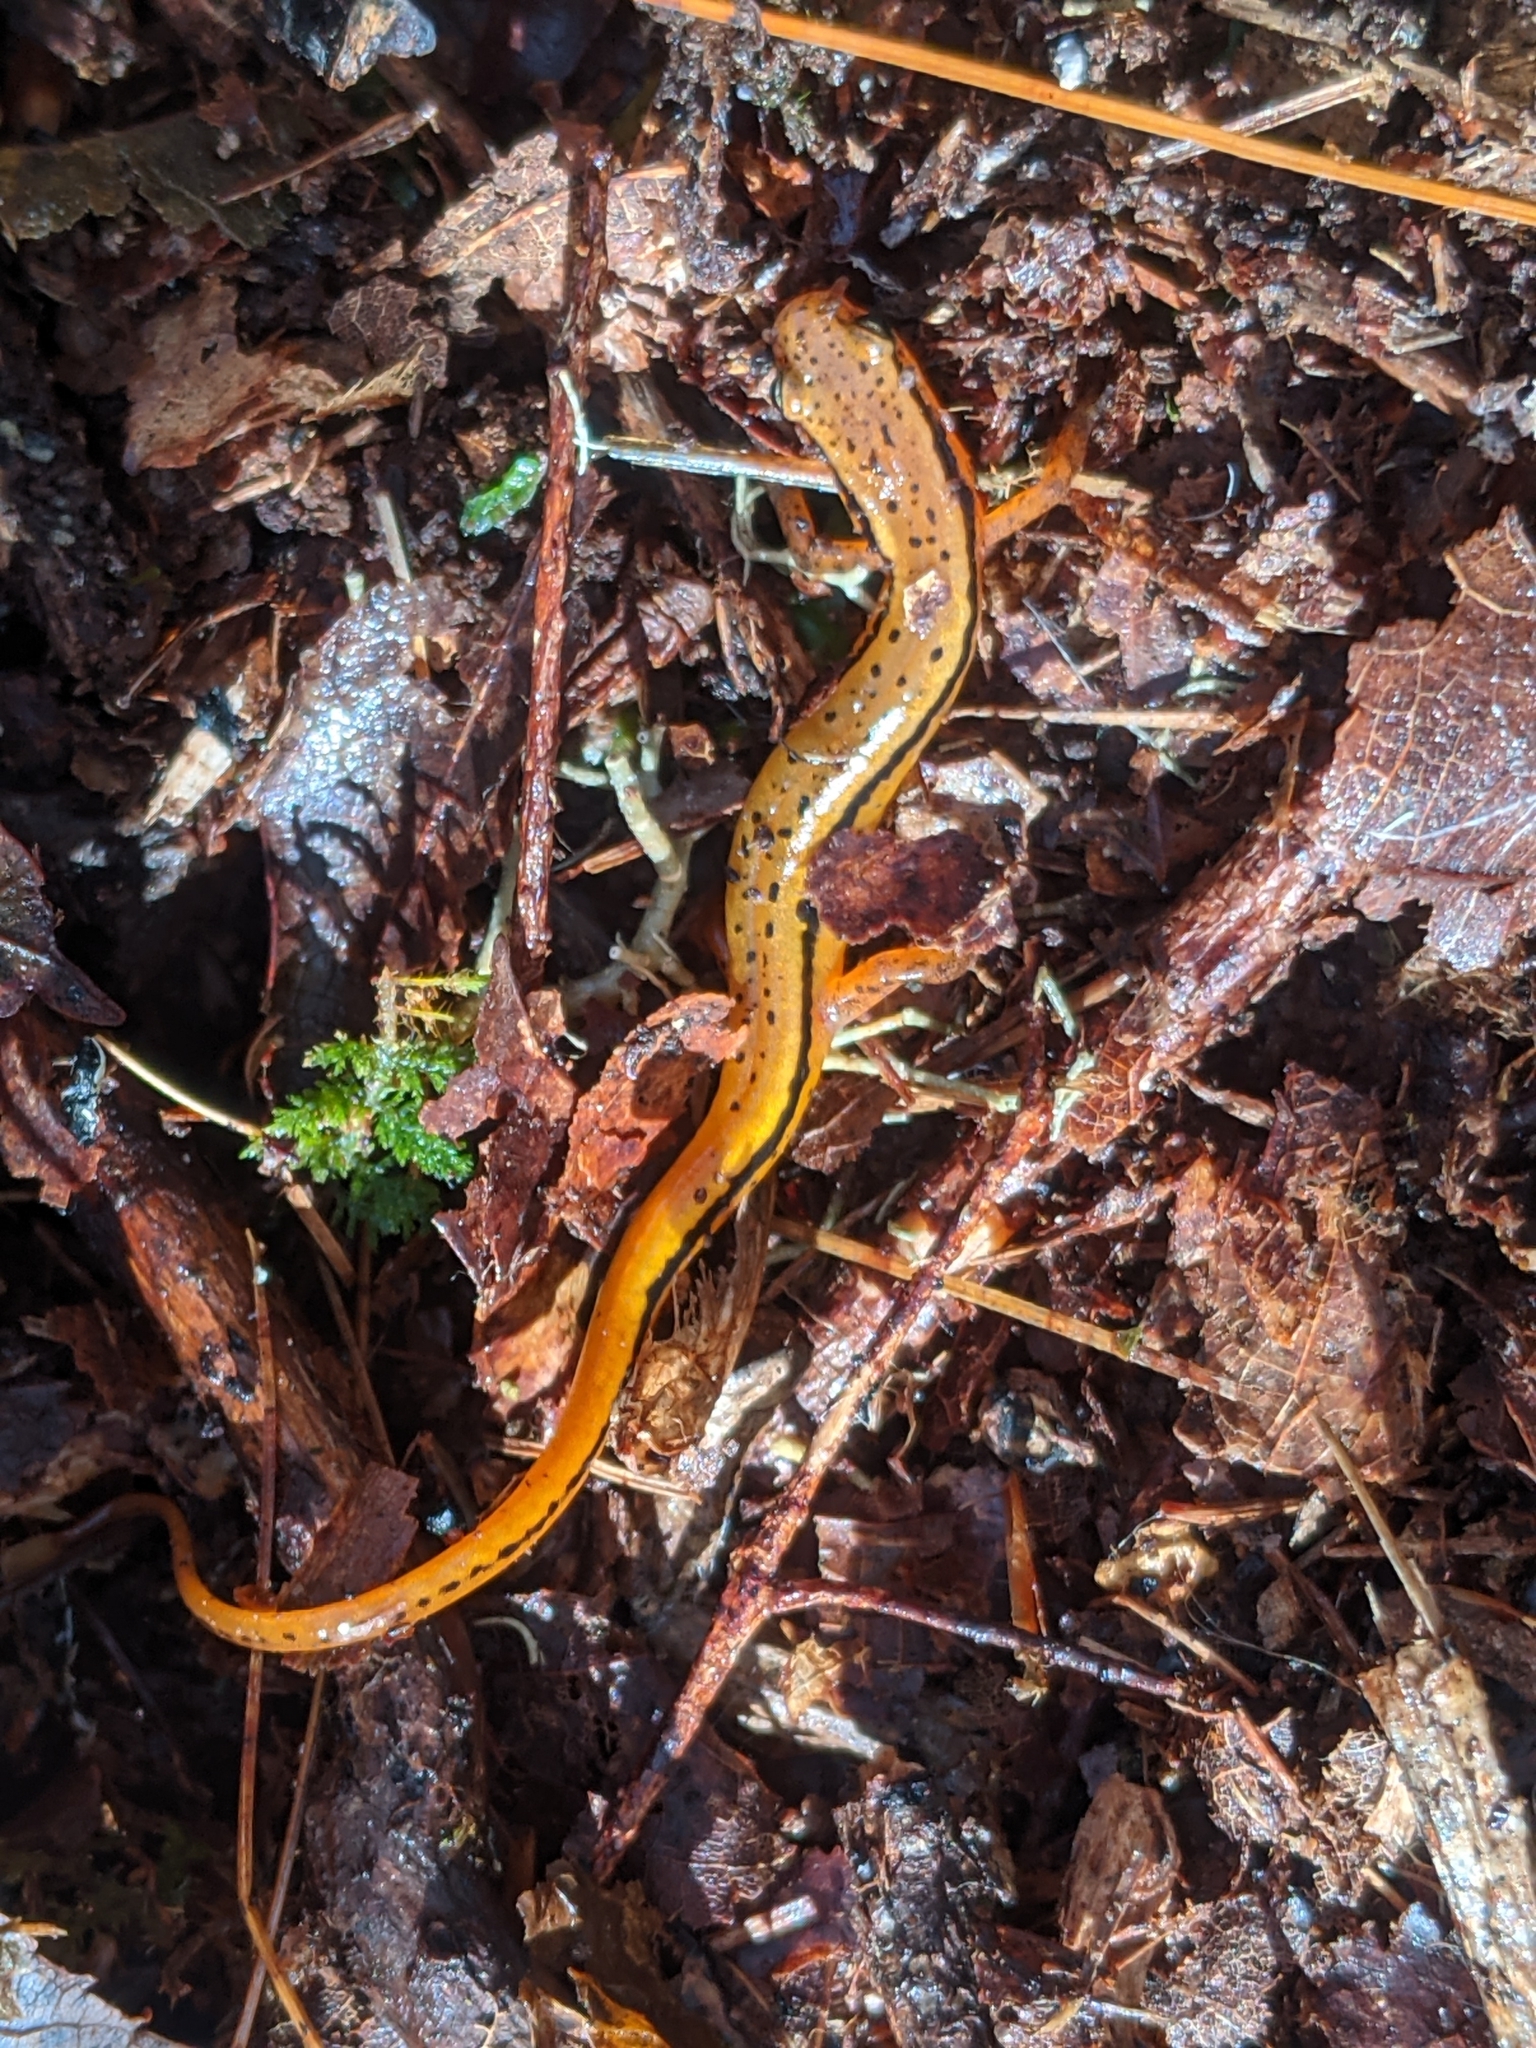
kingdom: Animalia
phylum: Chordata
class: Amphibia
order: Caudata
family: Plethodontidae
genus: Eurycea
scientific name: Eurycea wilderae
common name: Blue ridge two-lined salamander
